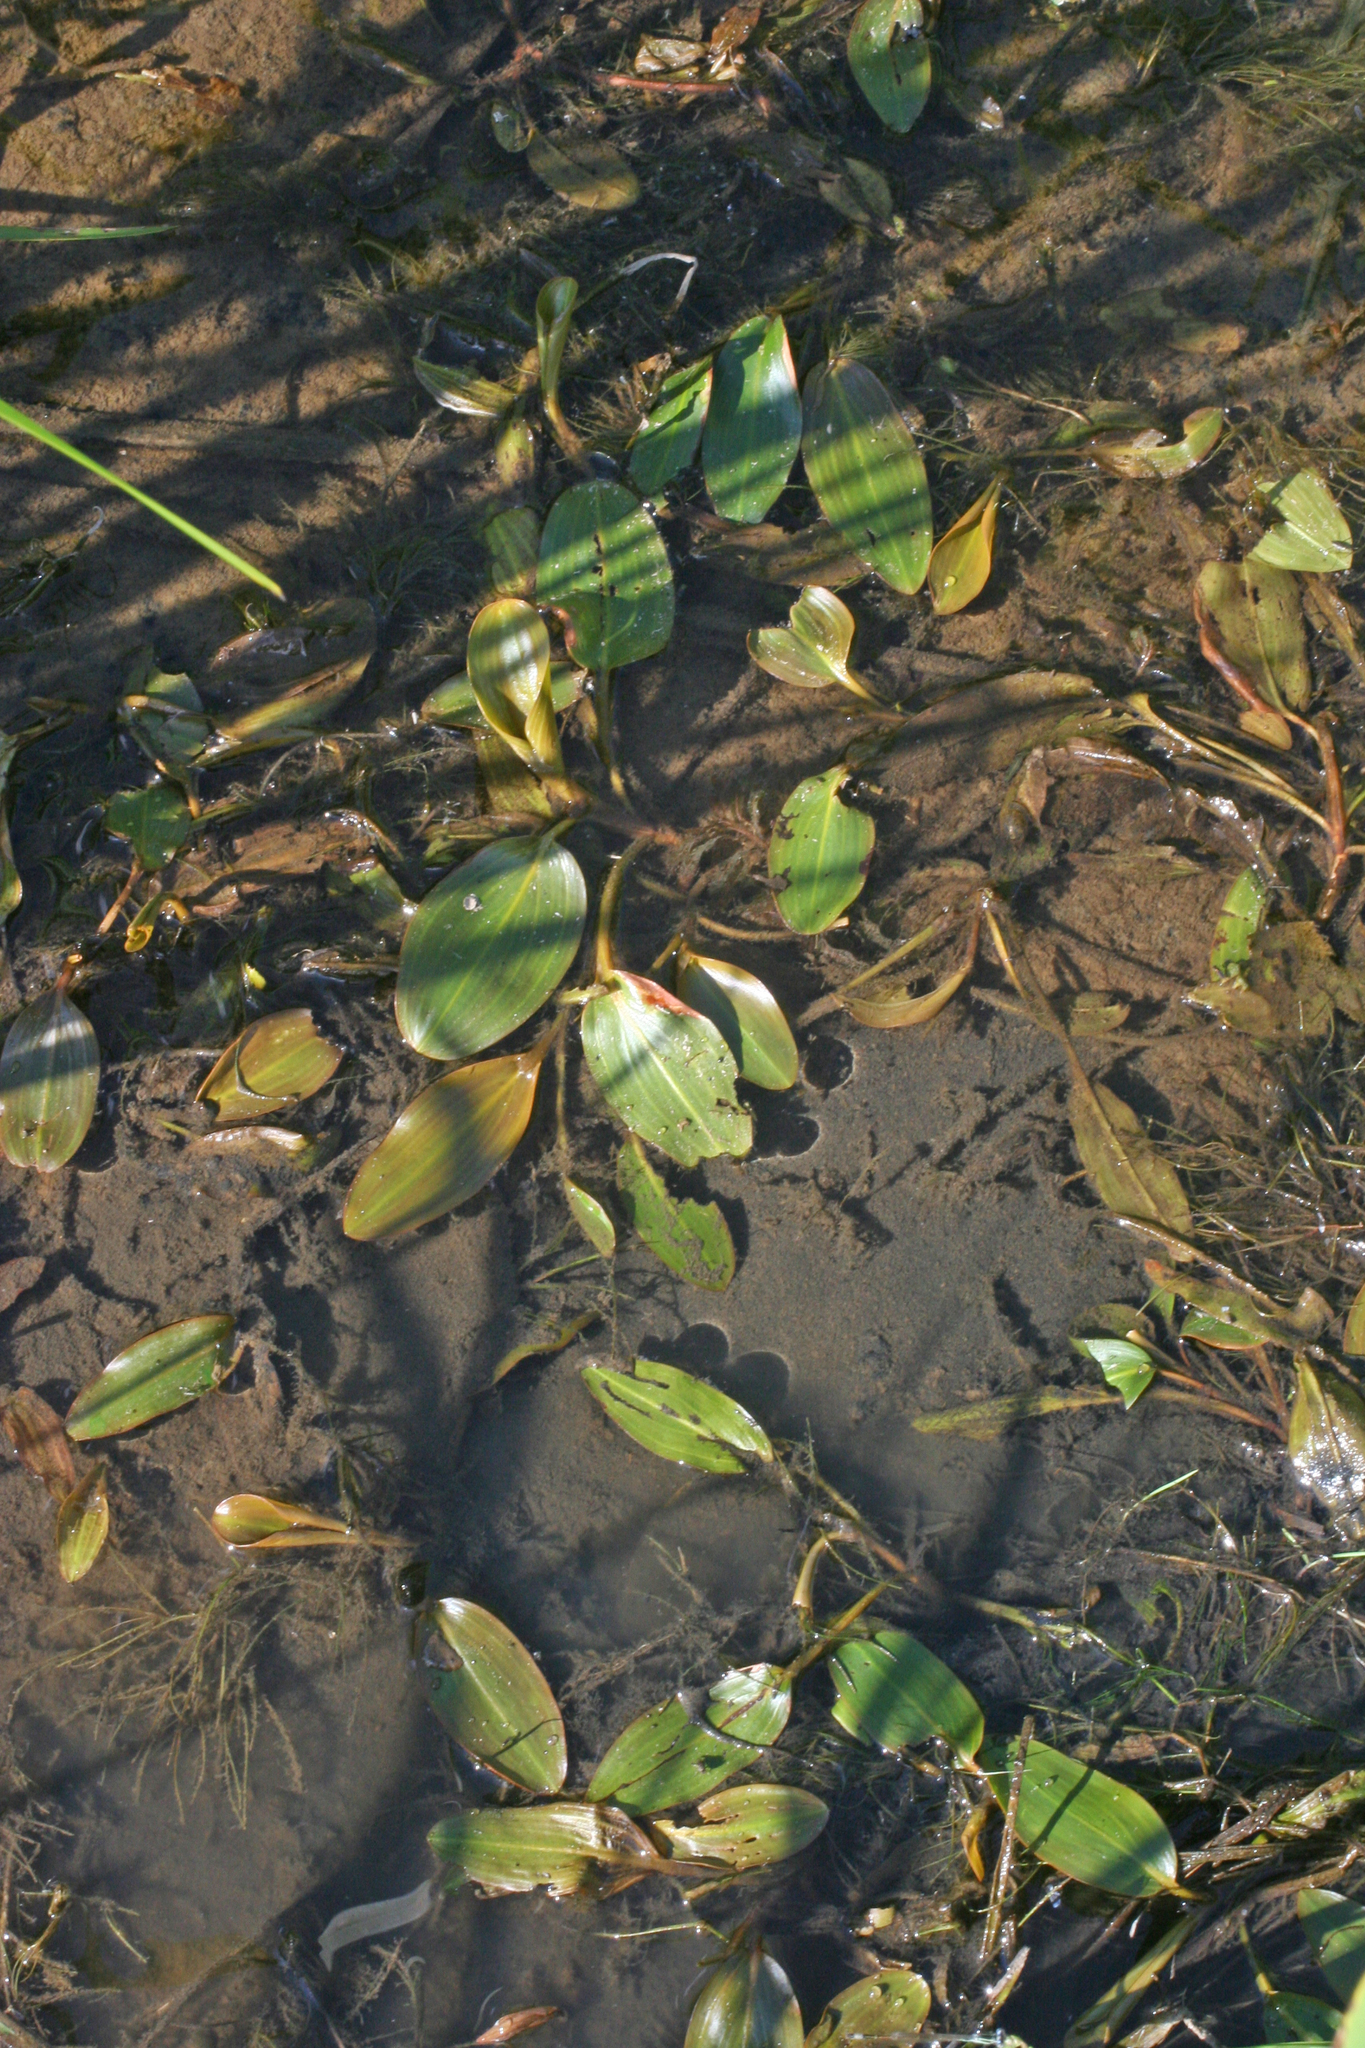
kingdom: Plantae
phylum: Tracheophyta
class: Liliopsida
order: Alismatales
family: Potamogetonaceae
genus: Potamogeton
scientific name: Potamogeton natans
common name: Broad-leaved pondweed
